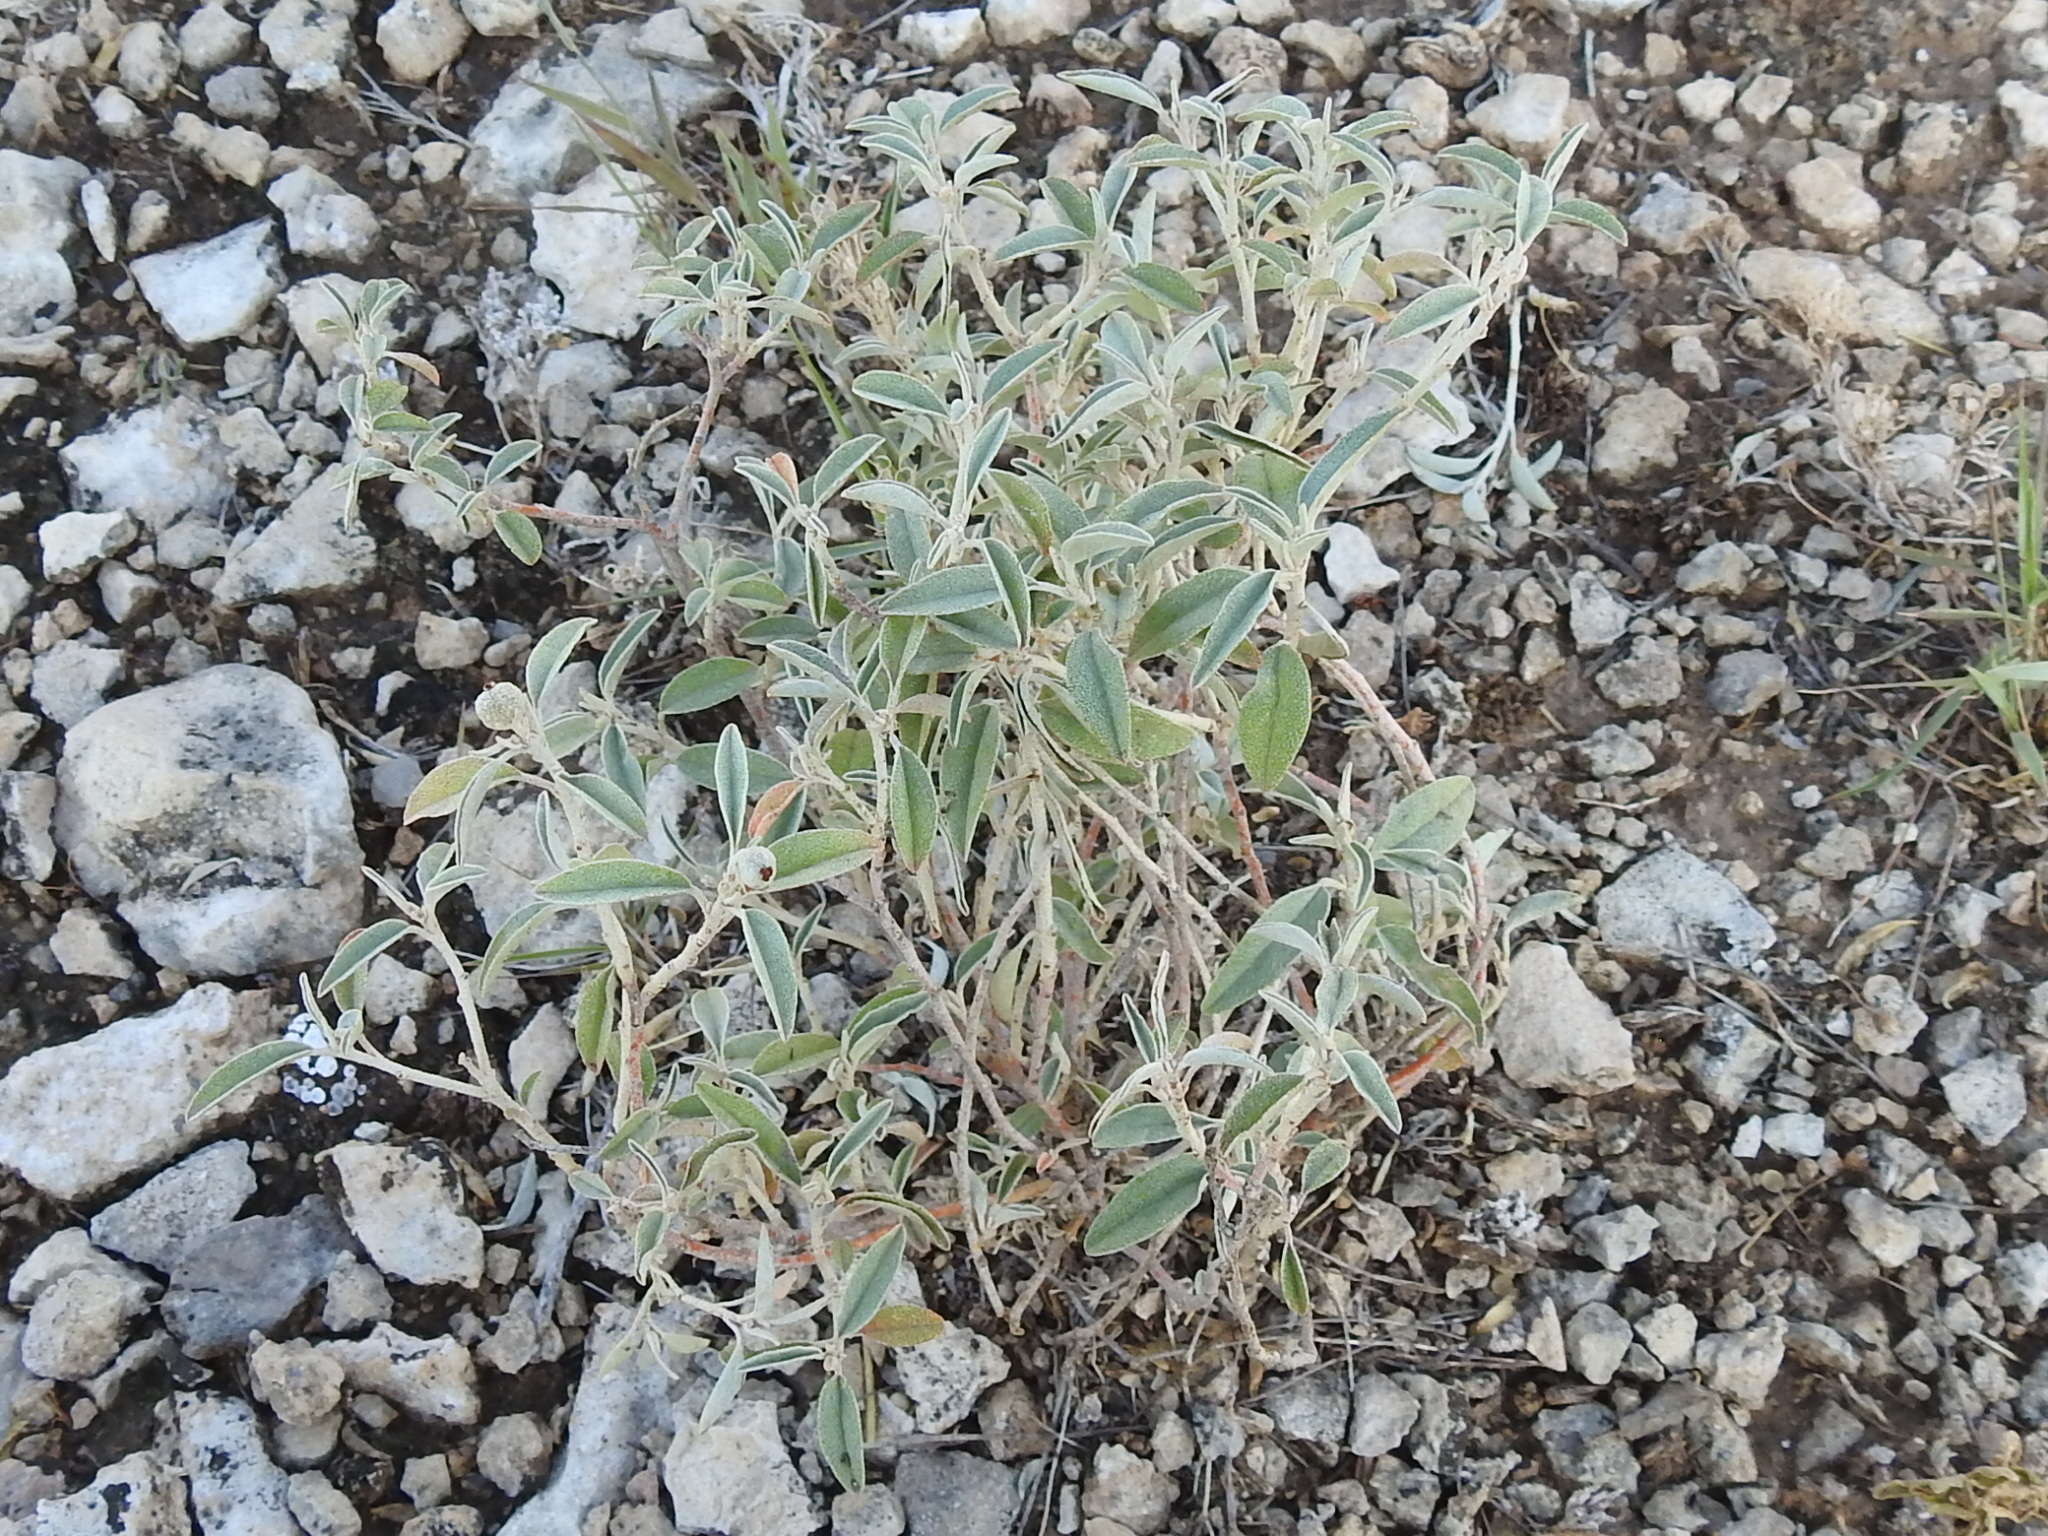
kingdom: Plantae
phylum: Tracheophyta
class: Magnoliopsida
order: Malpighiales
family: Euphorbiaceae
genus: Croton
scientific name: Croton dioicus
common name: Grassland croton
